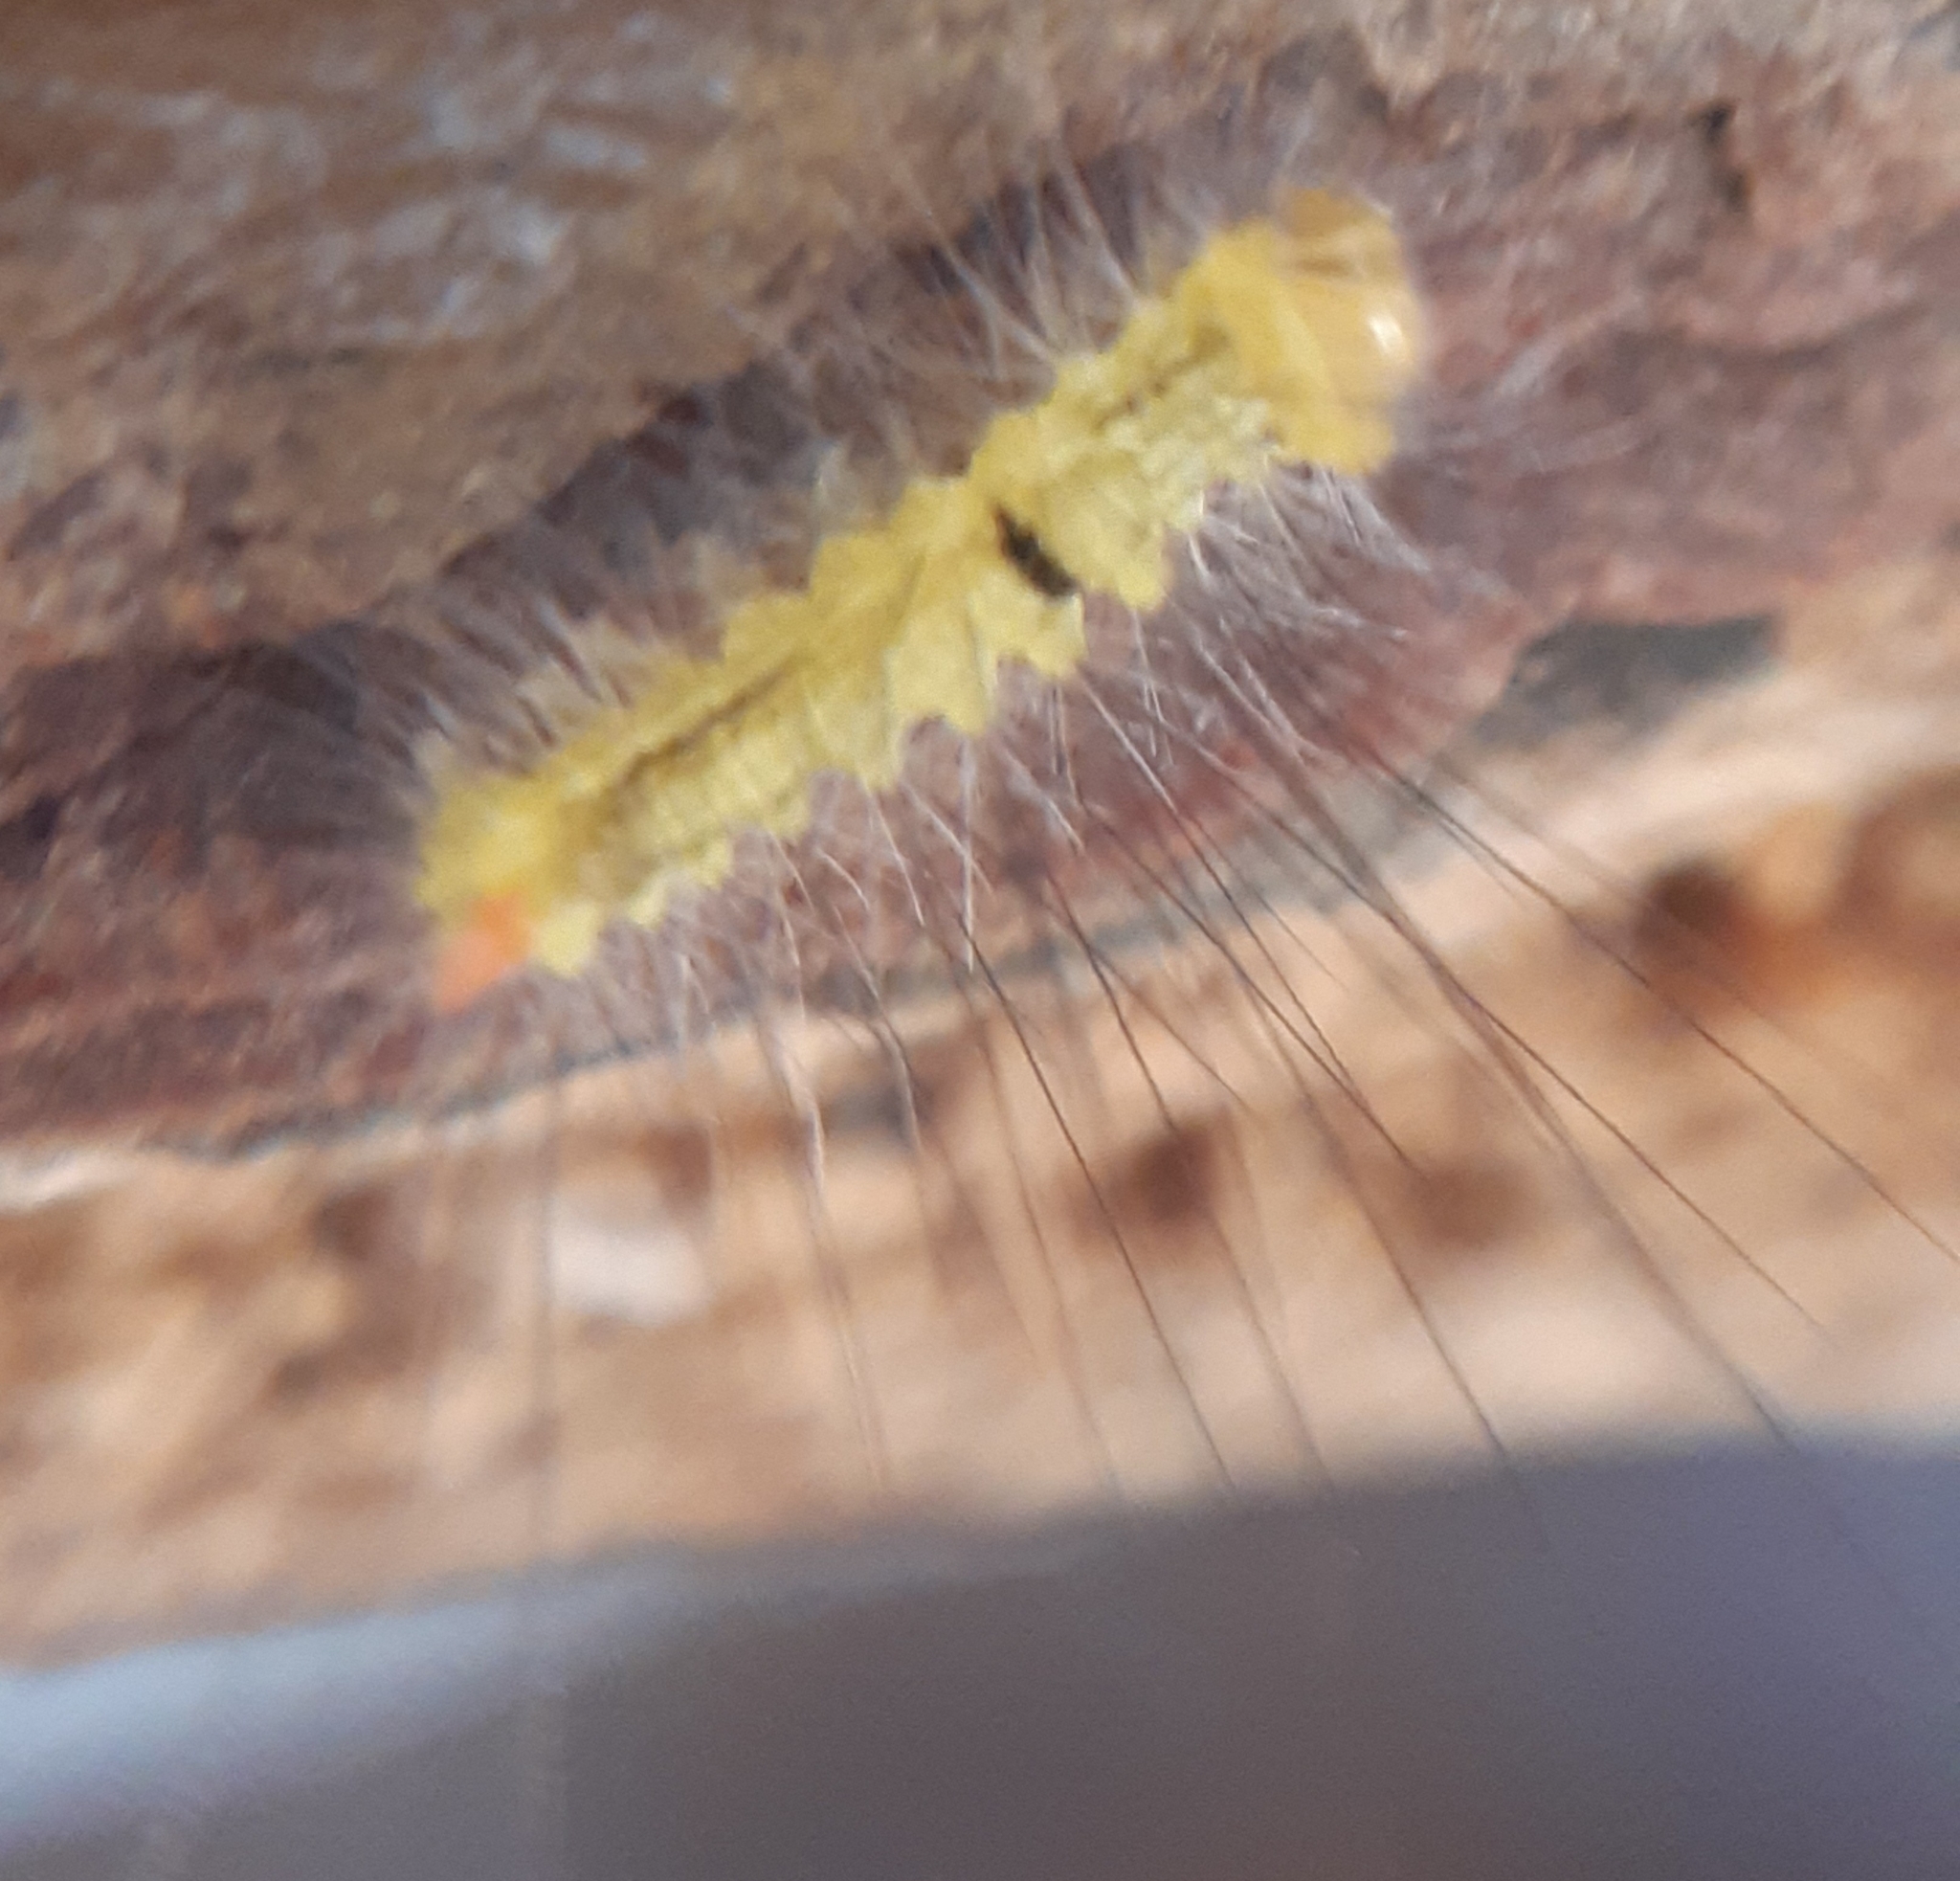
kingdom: Animalia
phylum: Arthropoda
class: Insecta
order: Lepidoptera
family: Erebidae
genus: Calliteara
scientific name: Calliteara pudibunda
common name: Pale tussock
